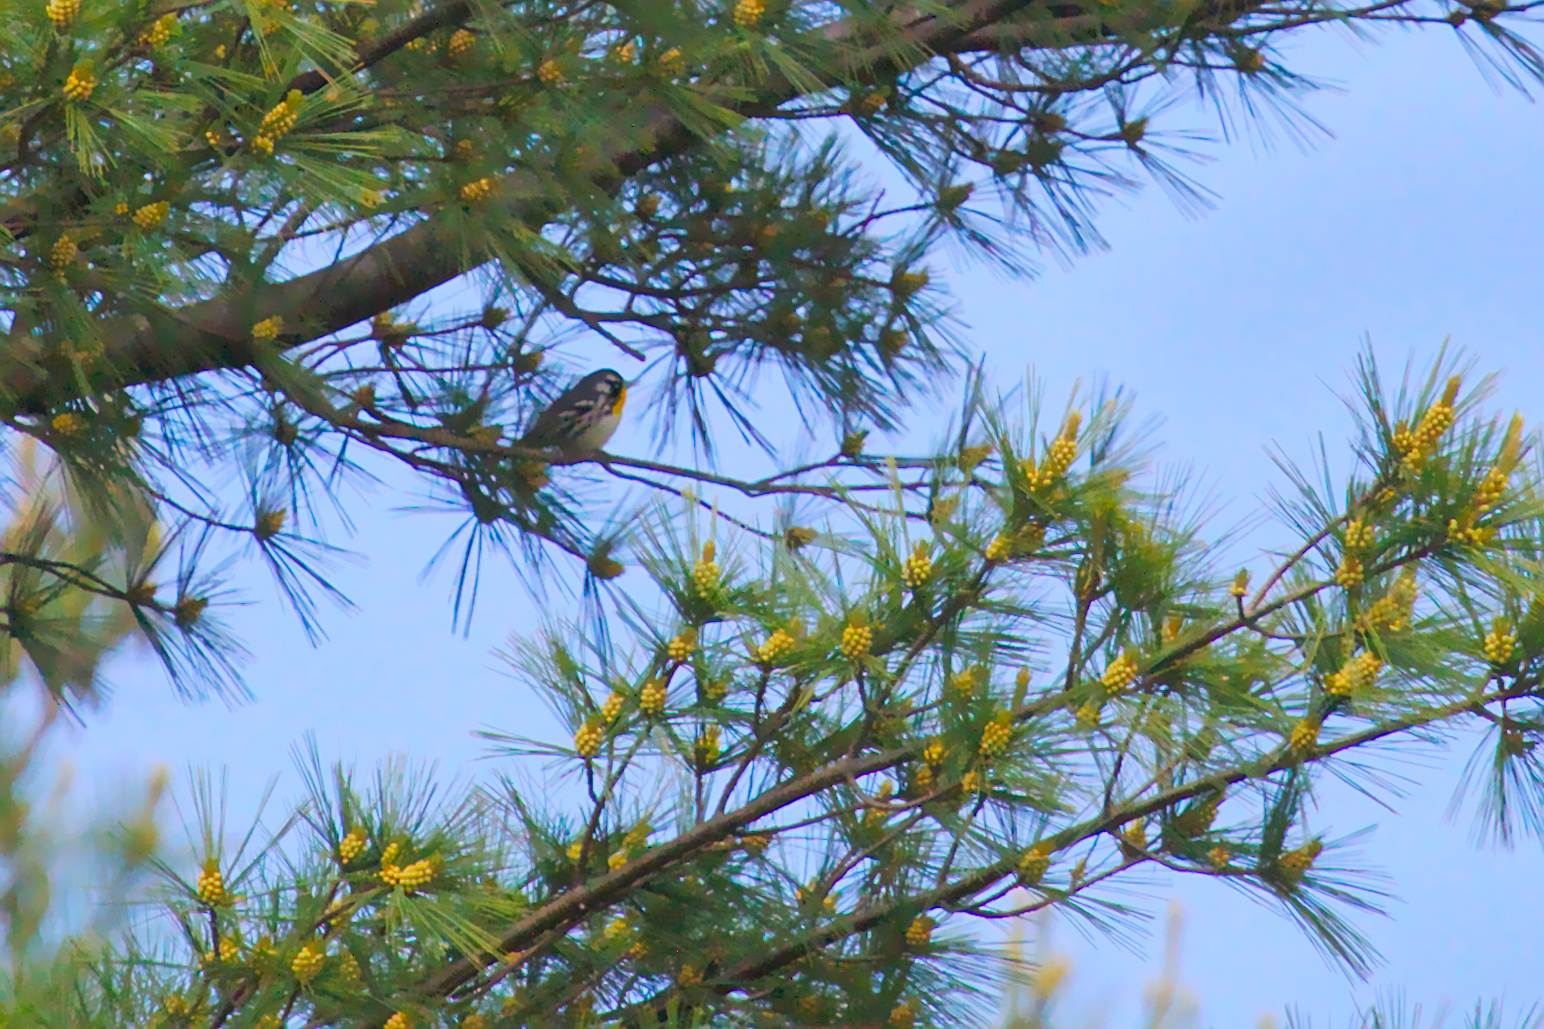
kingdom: Animalia
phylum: Chordata
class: Aves
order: Passeriformes
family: Parulidae
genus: Setophaga
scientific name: Setophaga dominica
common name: Yellow-throated warbler
